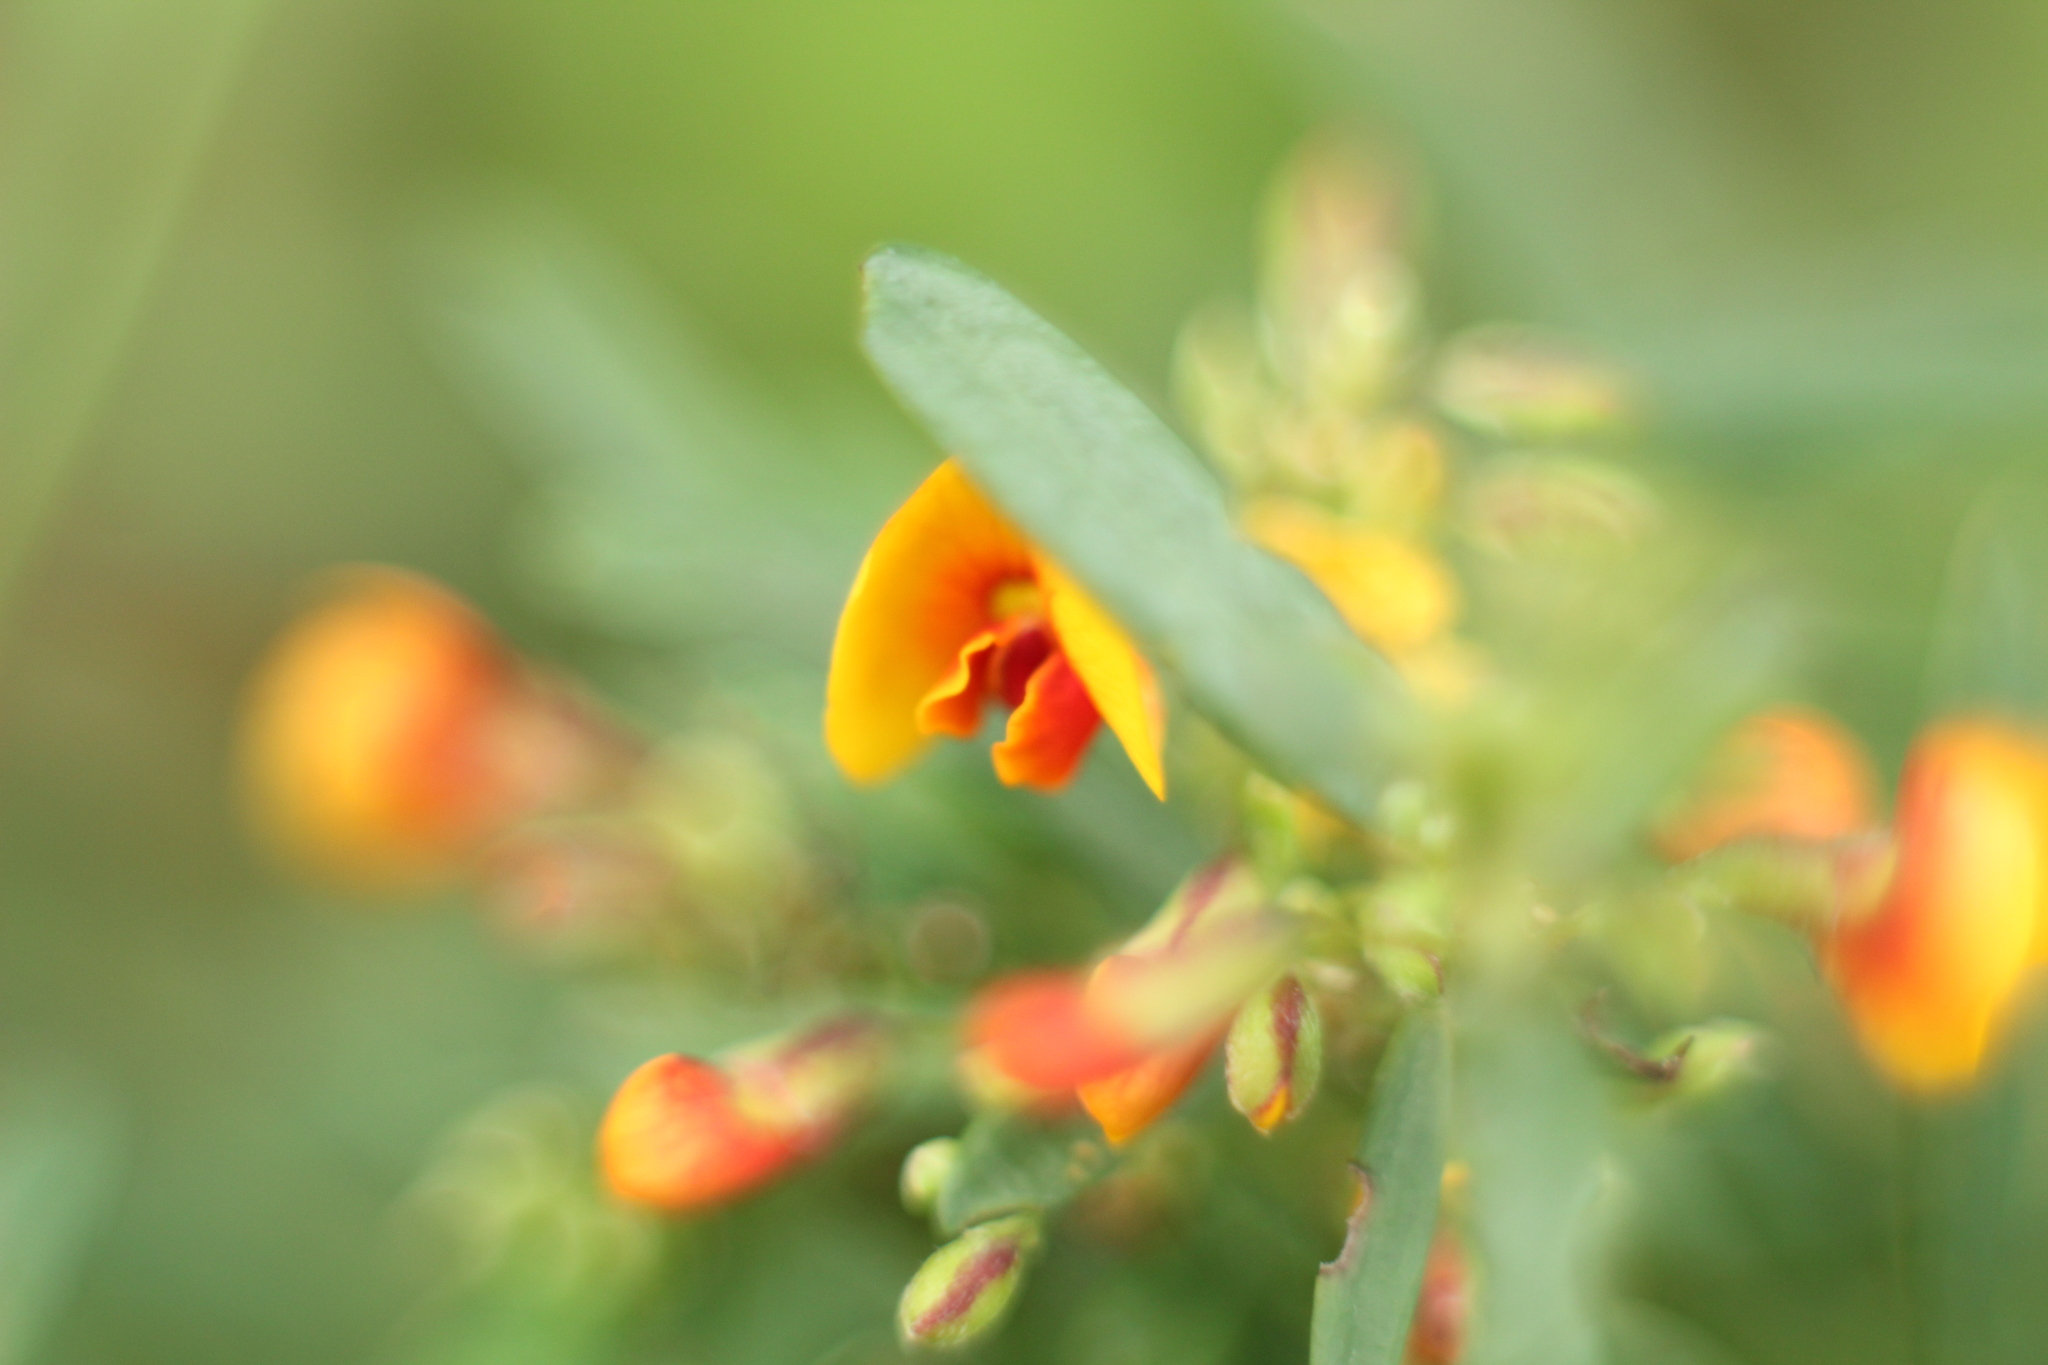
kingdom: Plantae
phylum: Tracheophyta
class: Magnoliopsida
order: Fabales
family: Fabaceae
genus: Bossiaea
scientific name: Bossiaea linophylla
